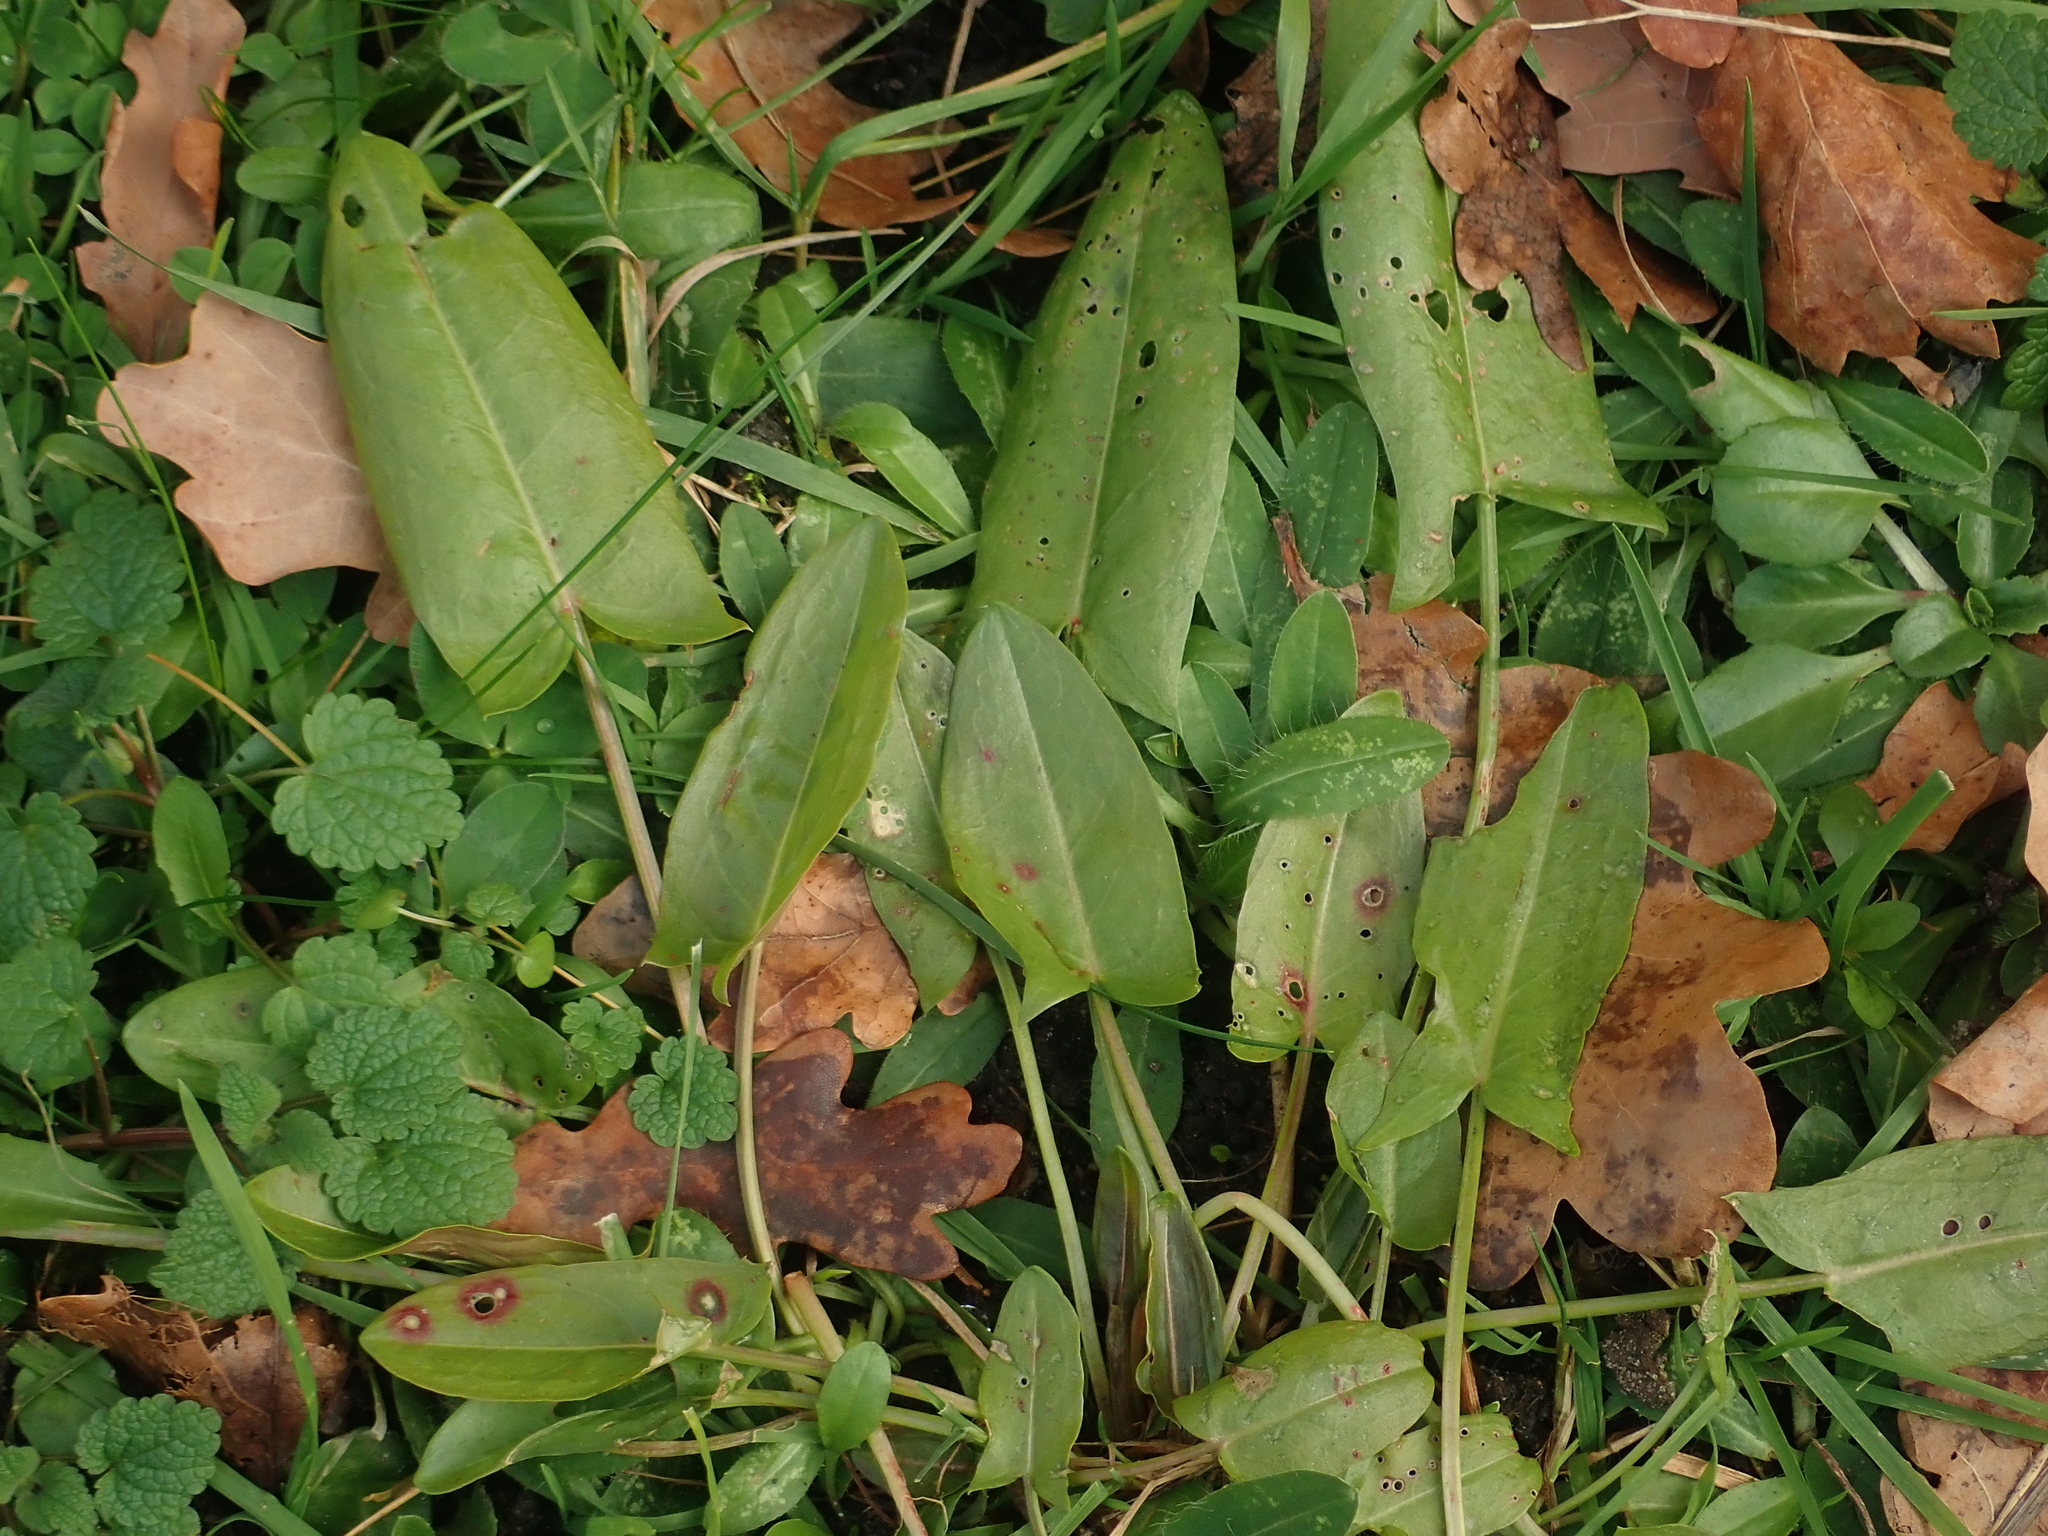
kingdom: Plantae
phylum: Tracheophyta
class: Magnoliopsida
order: Caryophyllales
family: Polygonaceae
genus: Rumex
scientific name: Rumex acetosa
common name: Garden sorrel
